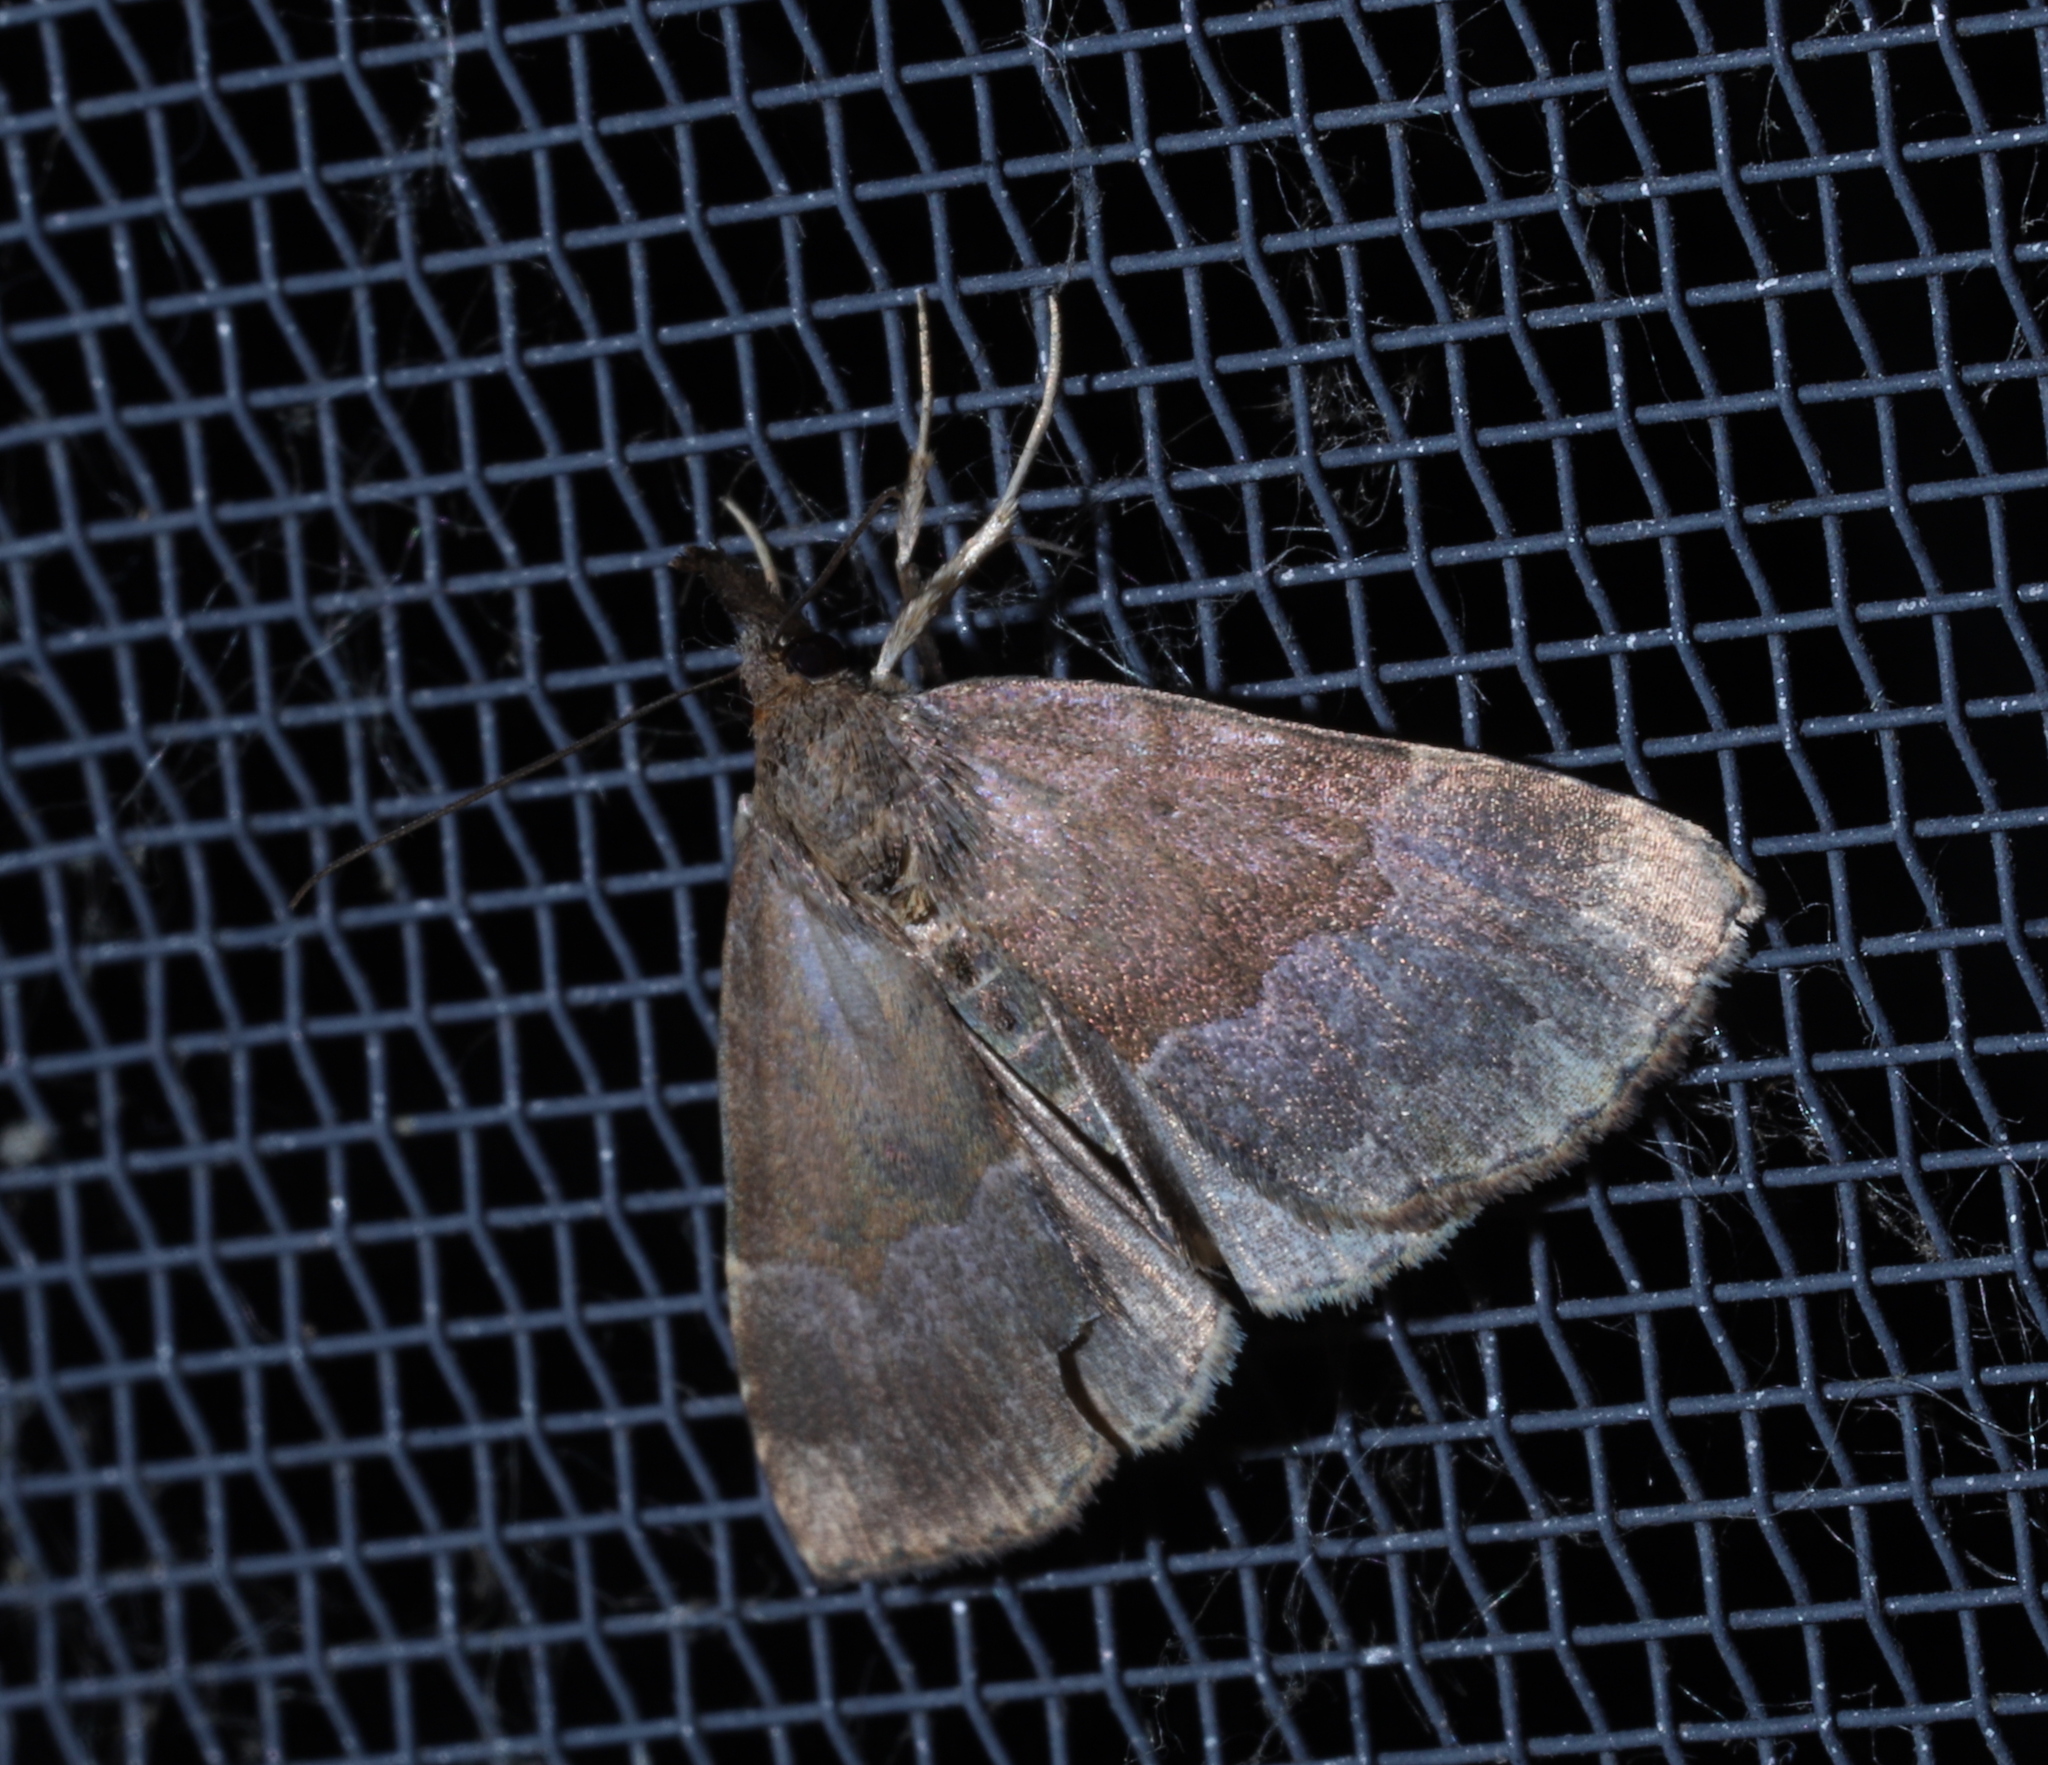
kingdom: Animalia
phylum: Arthropoda
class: Insecta
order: Lepidoptera
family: Erebidae
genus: Hypena
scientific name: Hypena madefactalis
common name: Gray-edged snout
